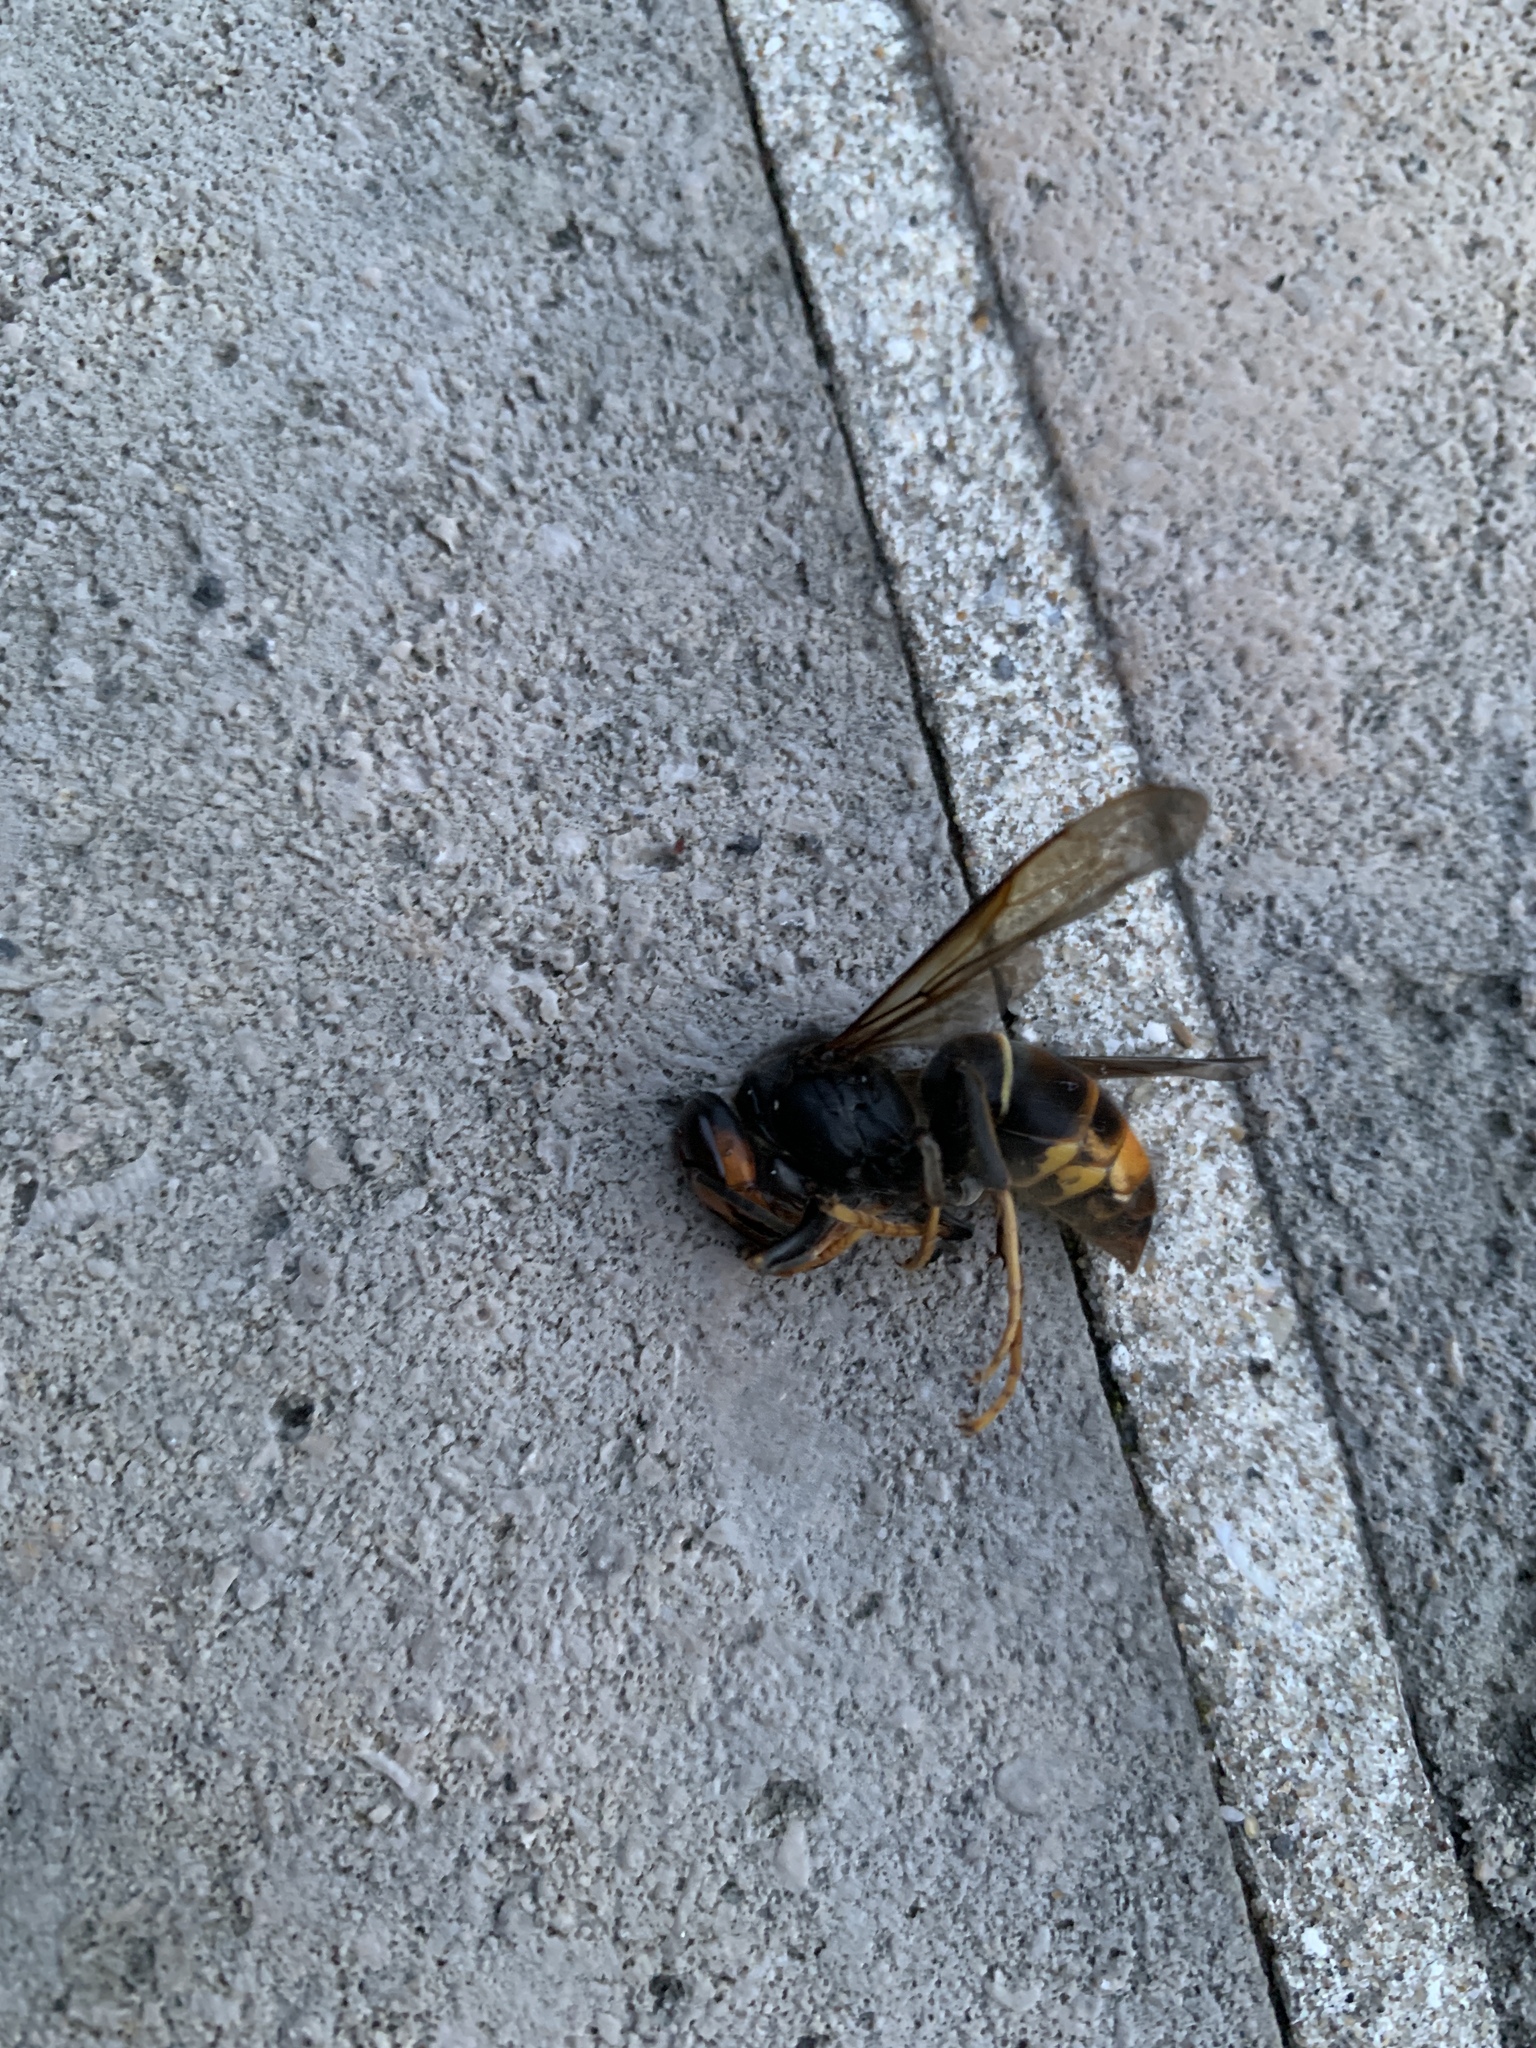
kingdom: Animalia
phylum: Arthropoda
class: Insecta
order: Hymenoptera
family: Vespidae
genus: Vespa
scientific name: Vespa velutina
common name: Asian hornet
